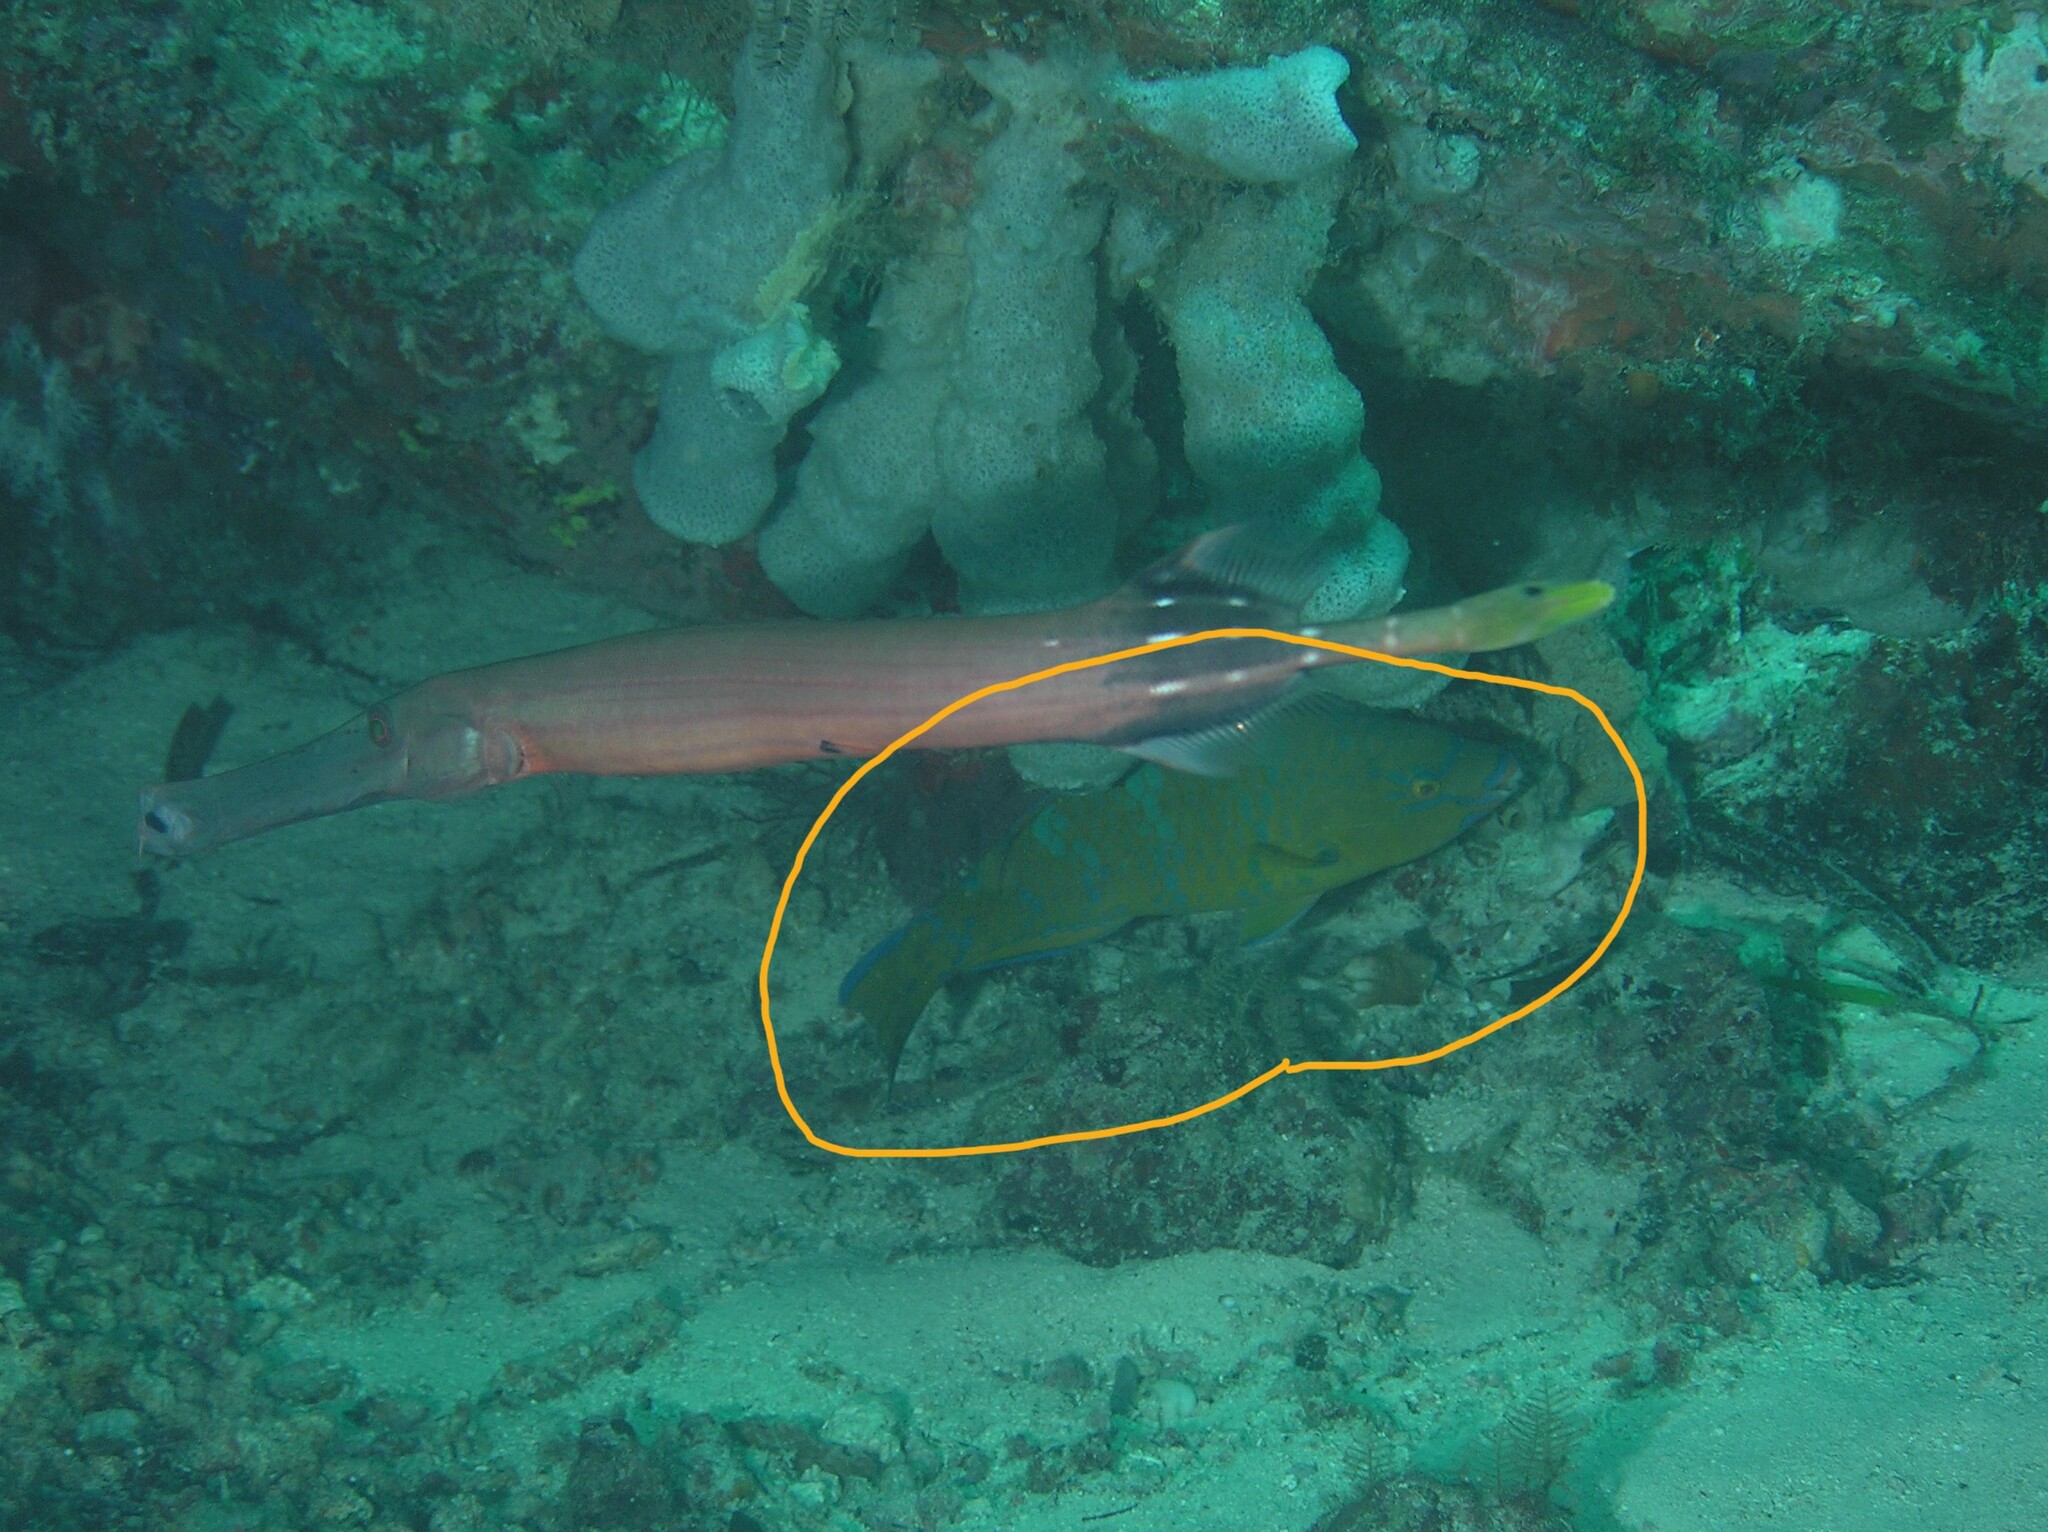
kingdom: Animalia
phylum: Chordata
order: Perciformes
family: Scaridae
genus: Scarus
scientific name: Scarus ghobban
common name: Blue-barred parrotfish
